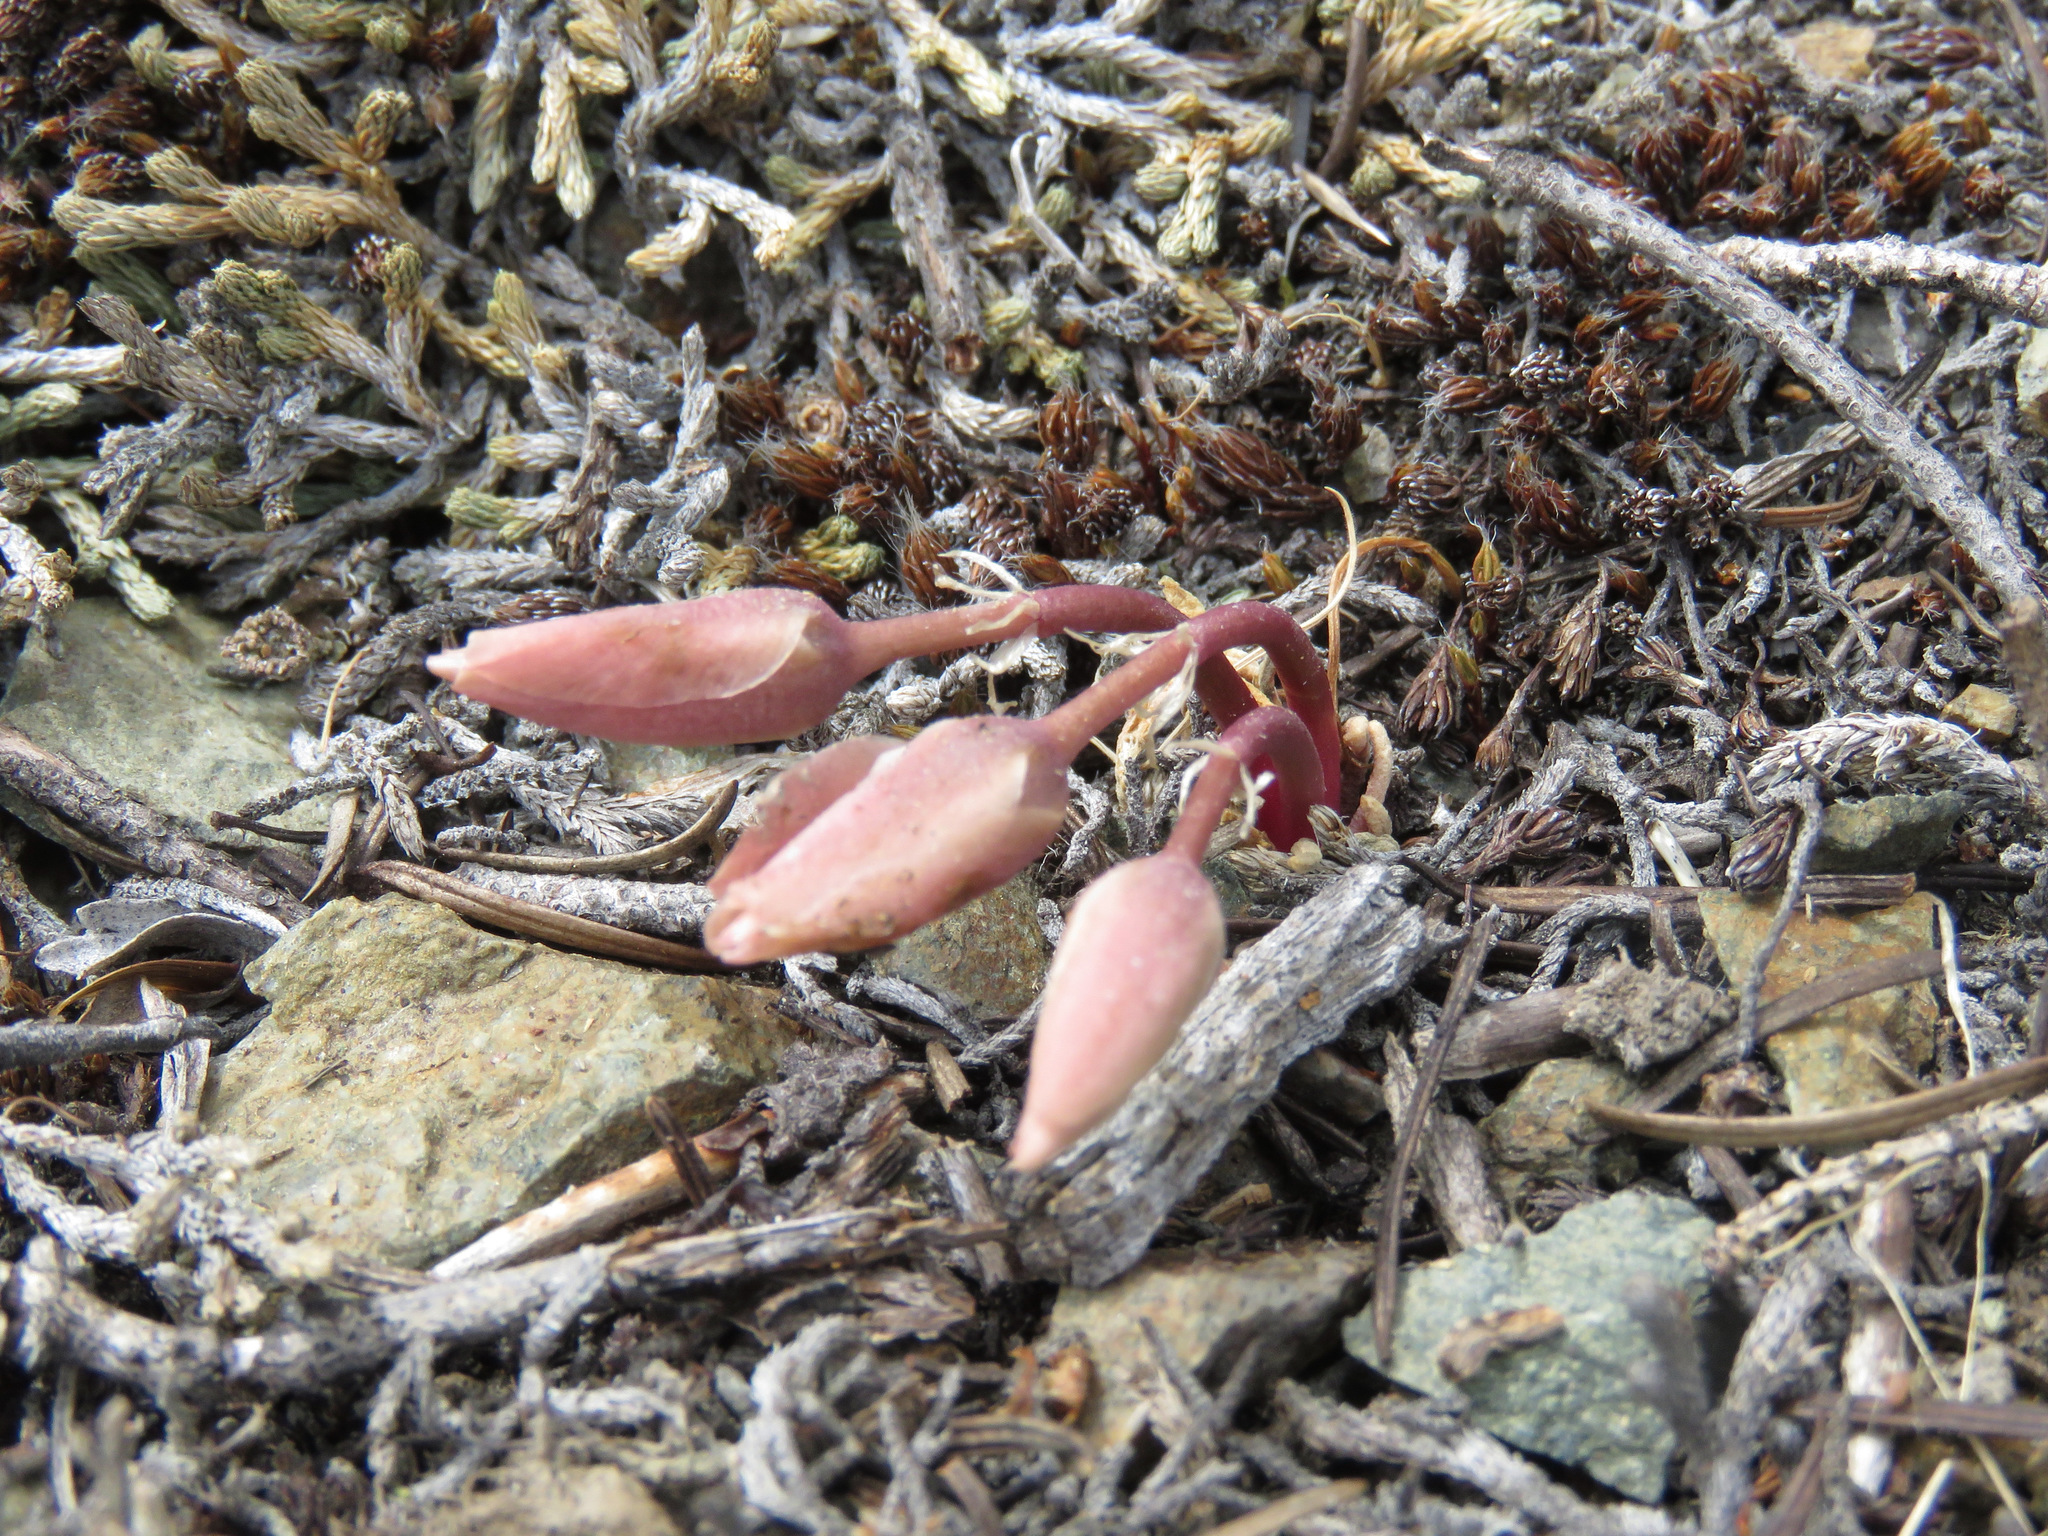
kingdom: Plantae
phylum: Tracheophyta
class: Magnoliopsida
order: Caryophyllales
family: Montiaceae
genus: Lewisia
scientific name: Lewisia rediviva
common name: Bitter-root
